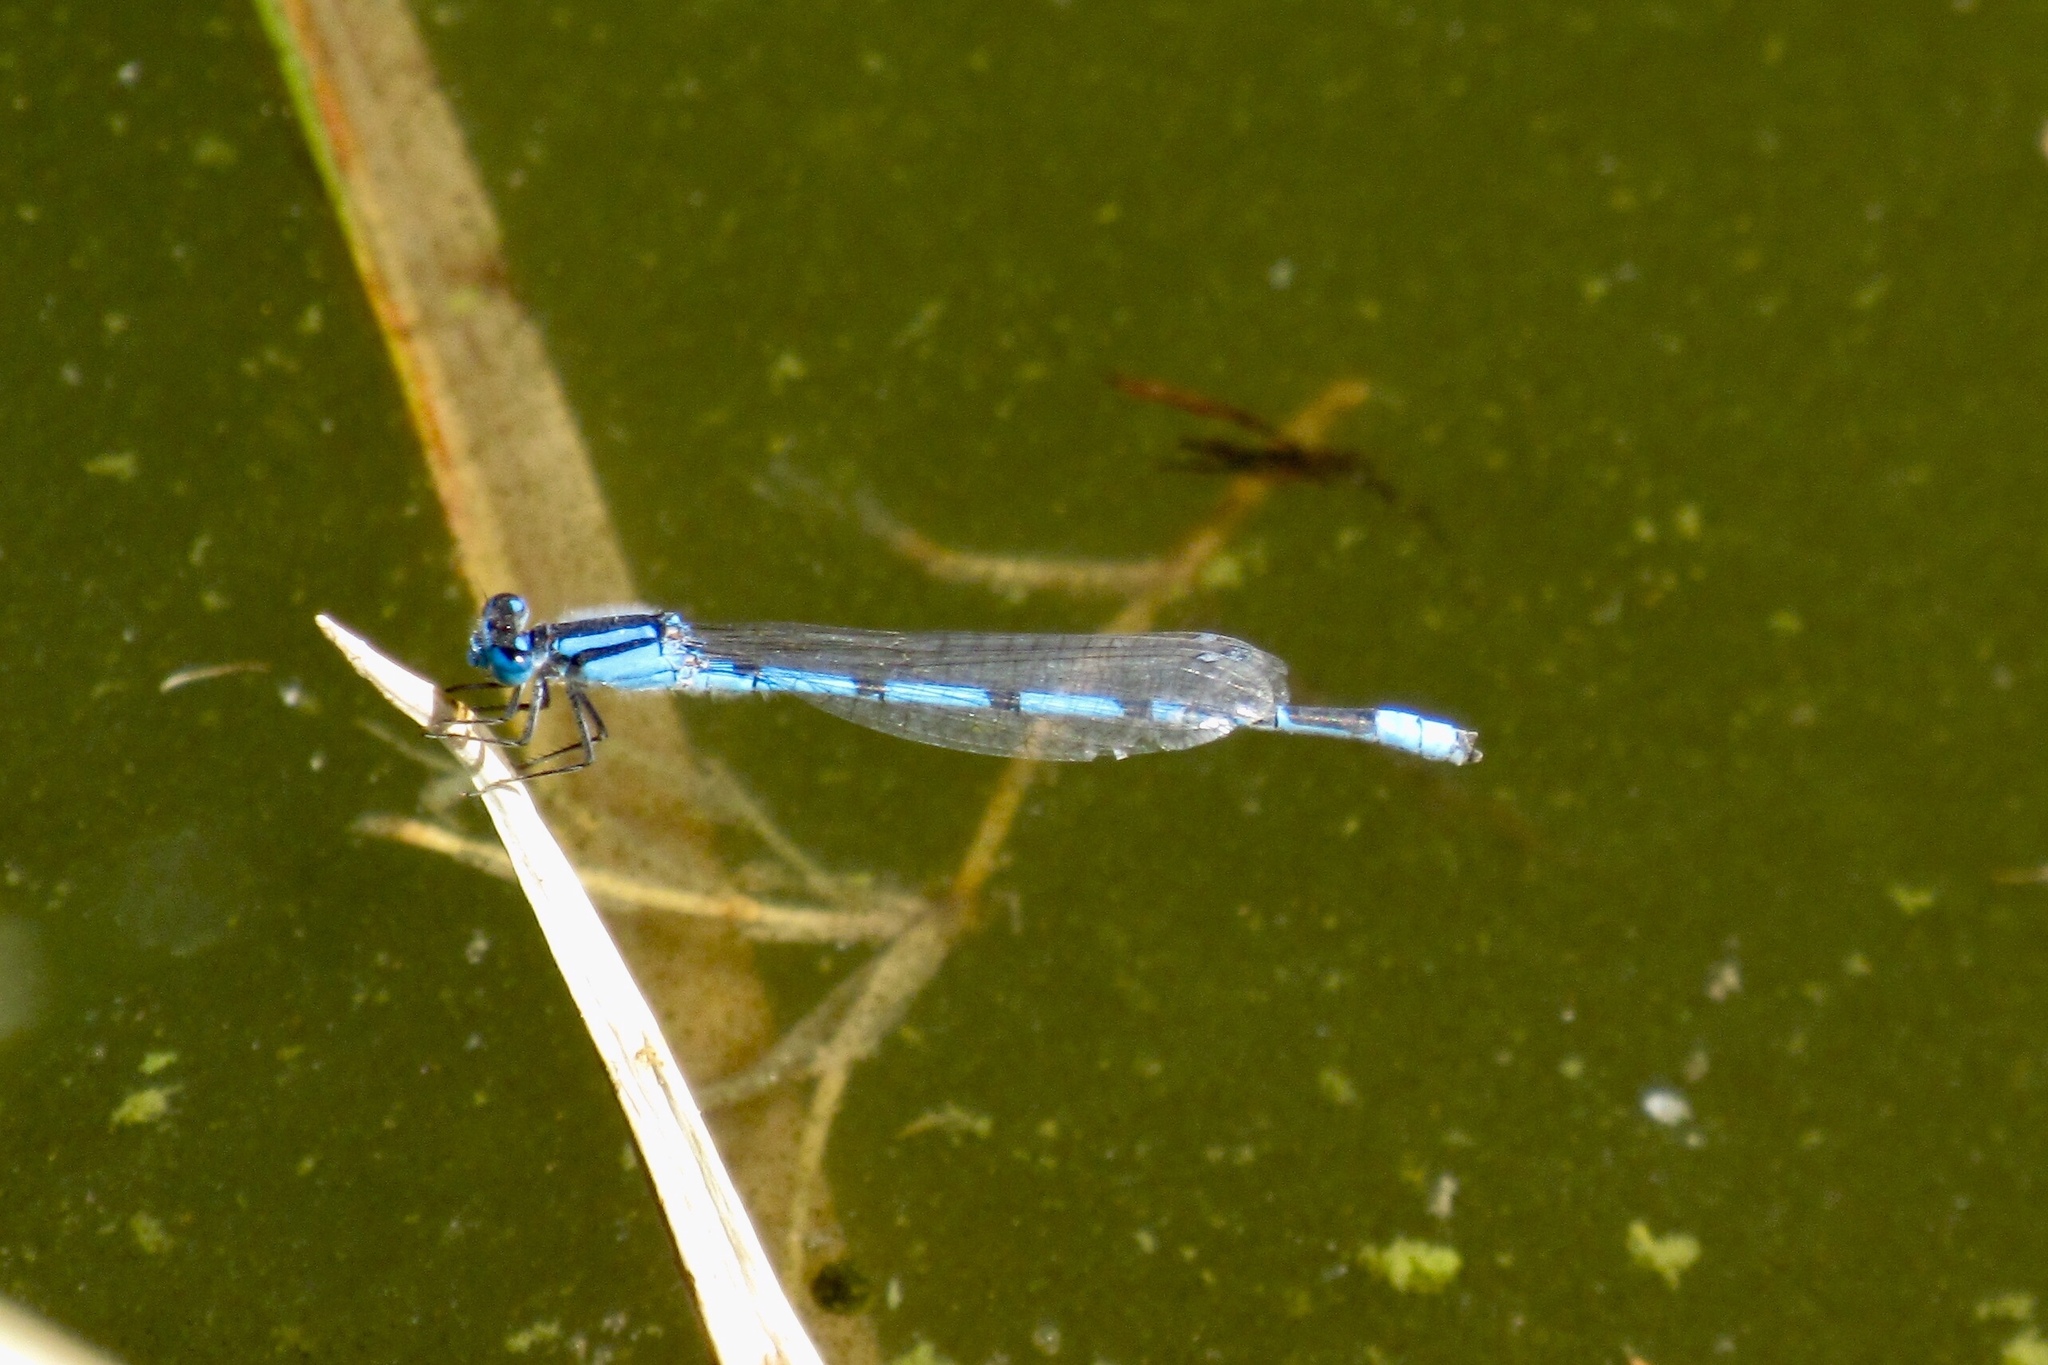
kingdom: Animalia
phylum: Arthropoda
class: Insecta
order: Odonata
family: Coenagrionidae
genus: Enallagma
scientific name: Enallagma civile
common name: Damselfly
